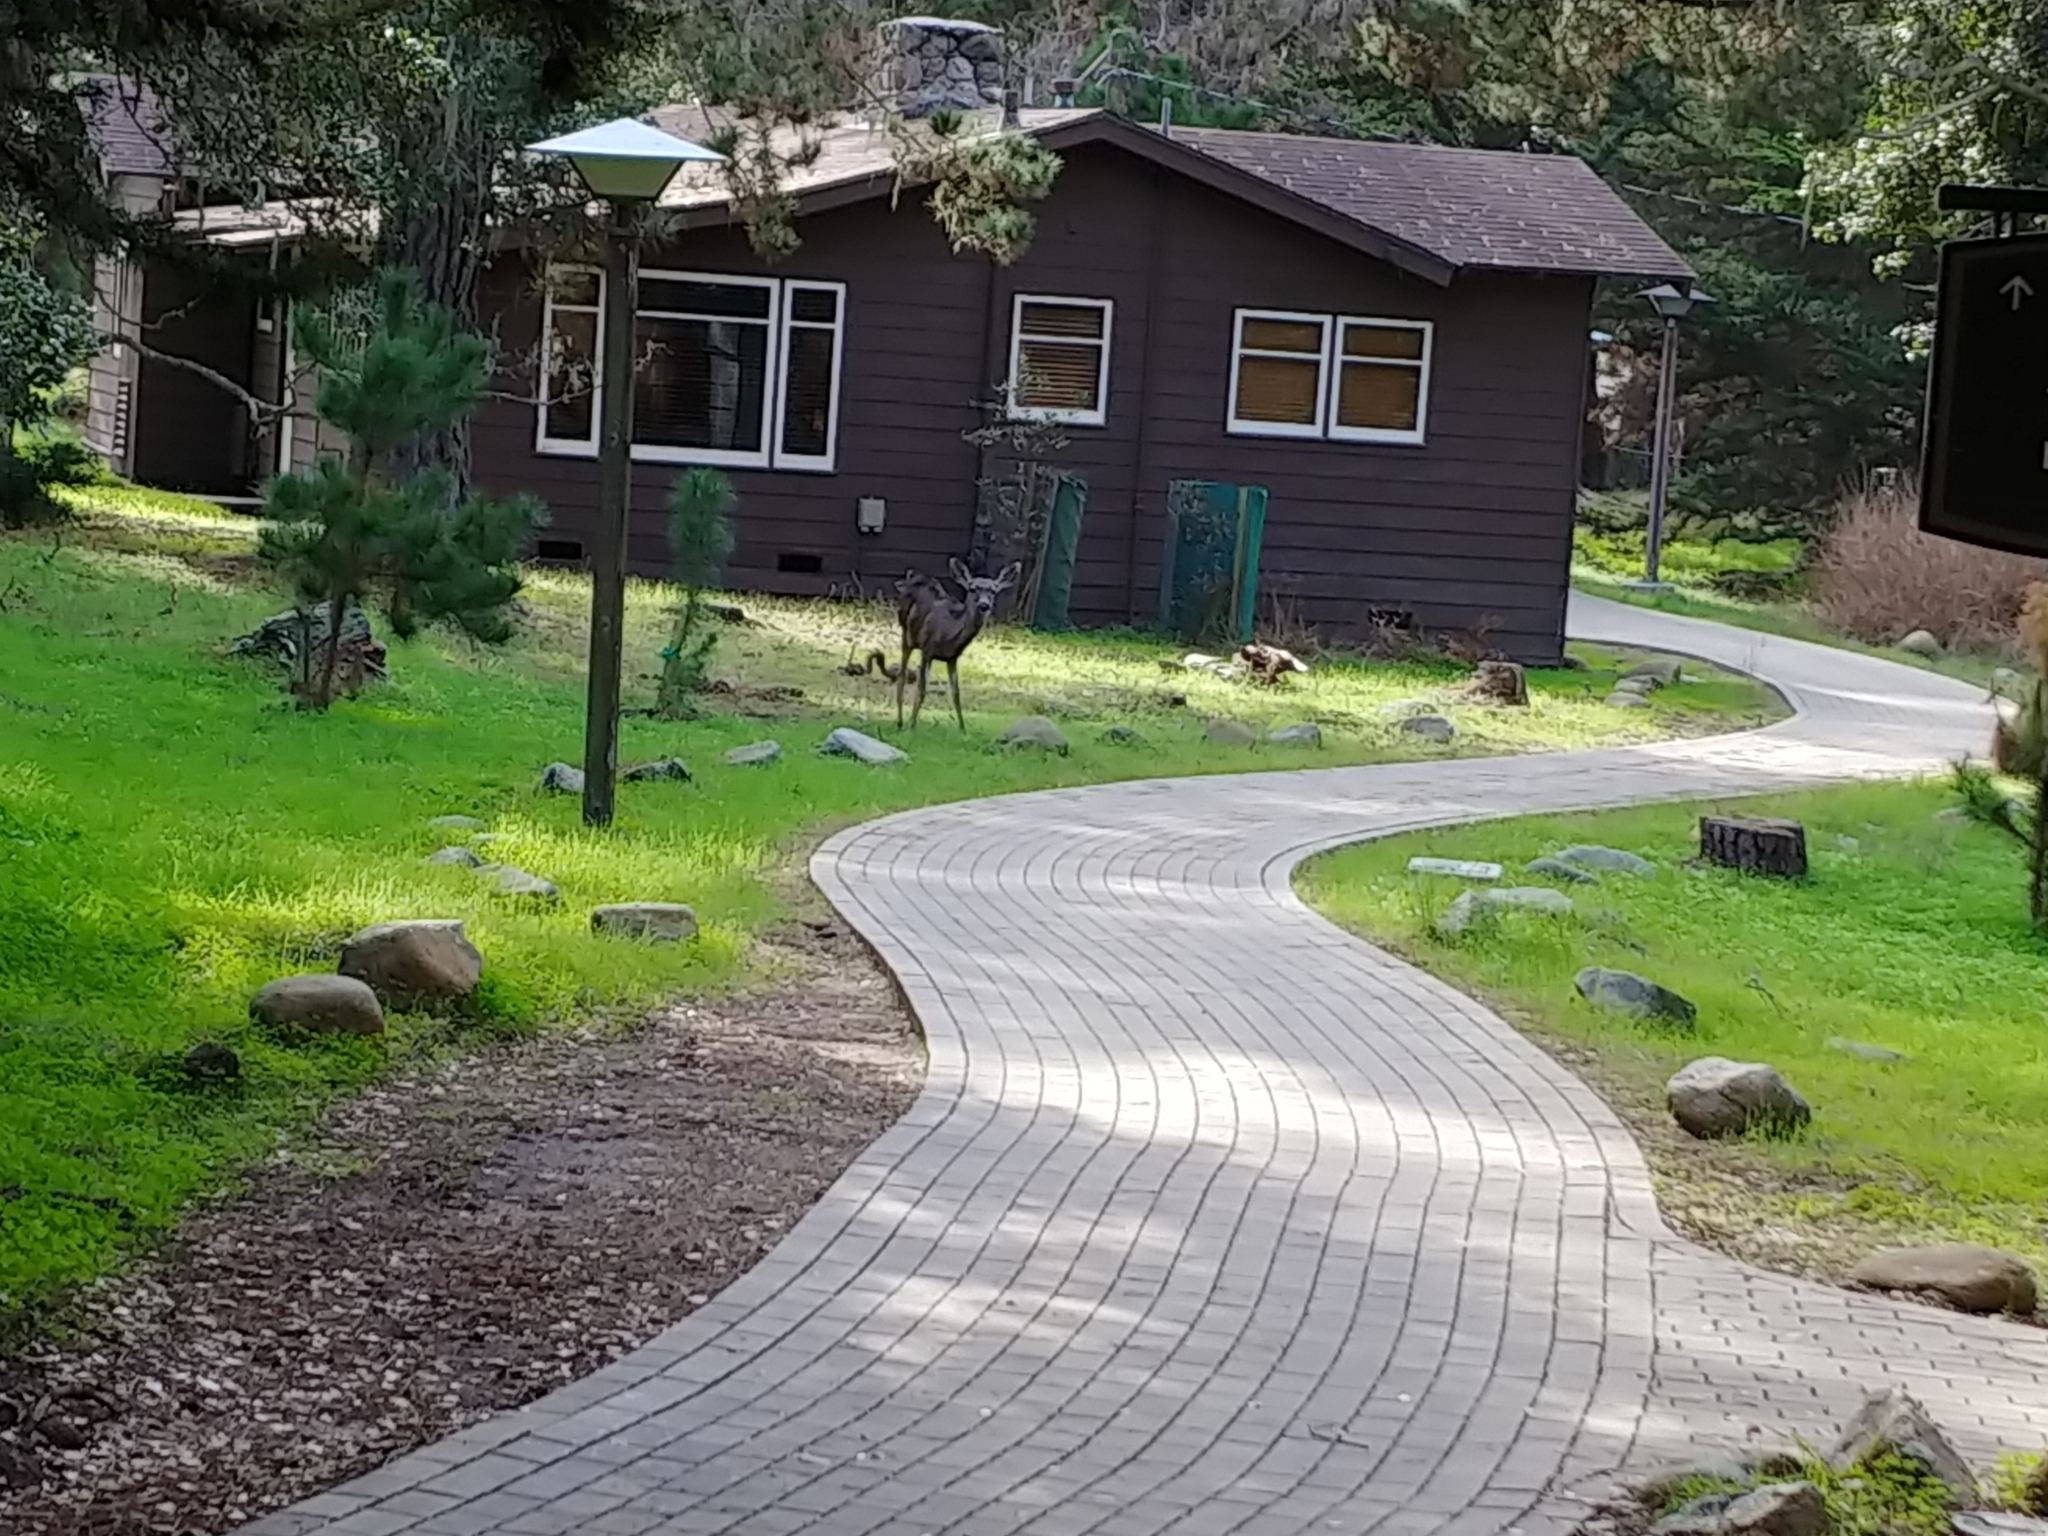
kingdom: Animalia
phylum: Chordata
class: Mammalia
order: Artiodactyla
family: Cervidae
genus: Odocoileus
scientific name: Odocoileus hemionus
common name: Mule deer
